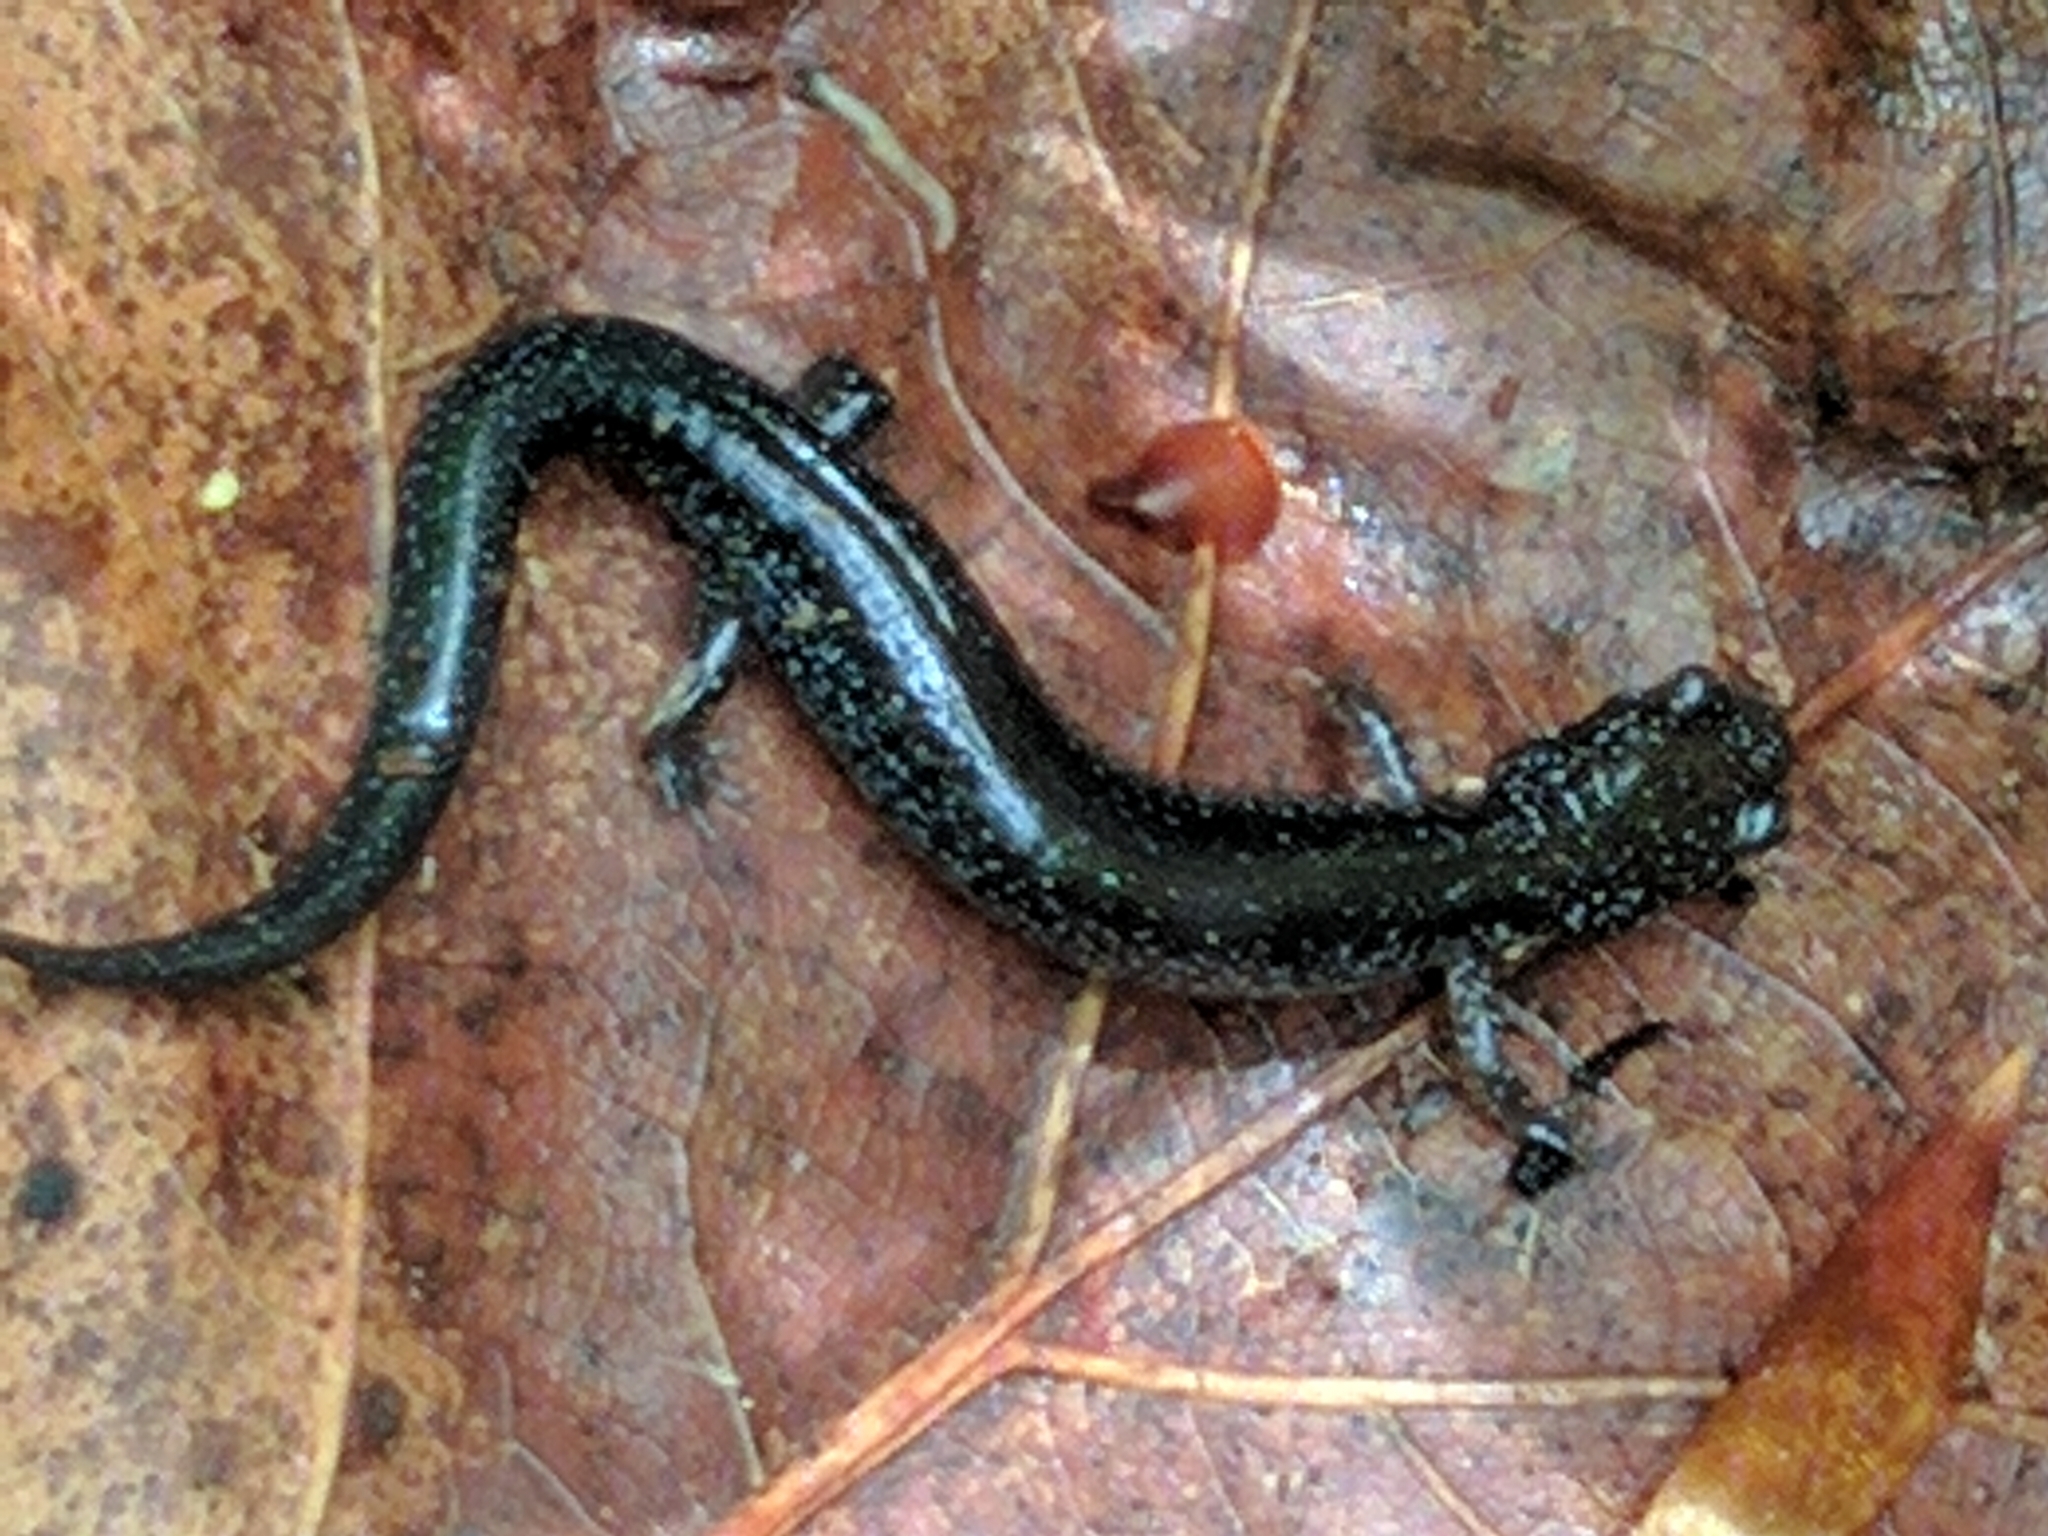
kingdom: Animalia
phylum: Chordata
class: Amphibia
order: Caudata
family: Plethodontidae
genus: Plethodon
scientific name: Plethodon cinereus
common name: Redback salamander
